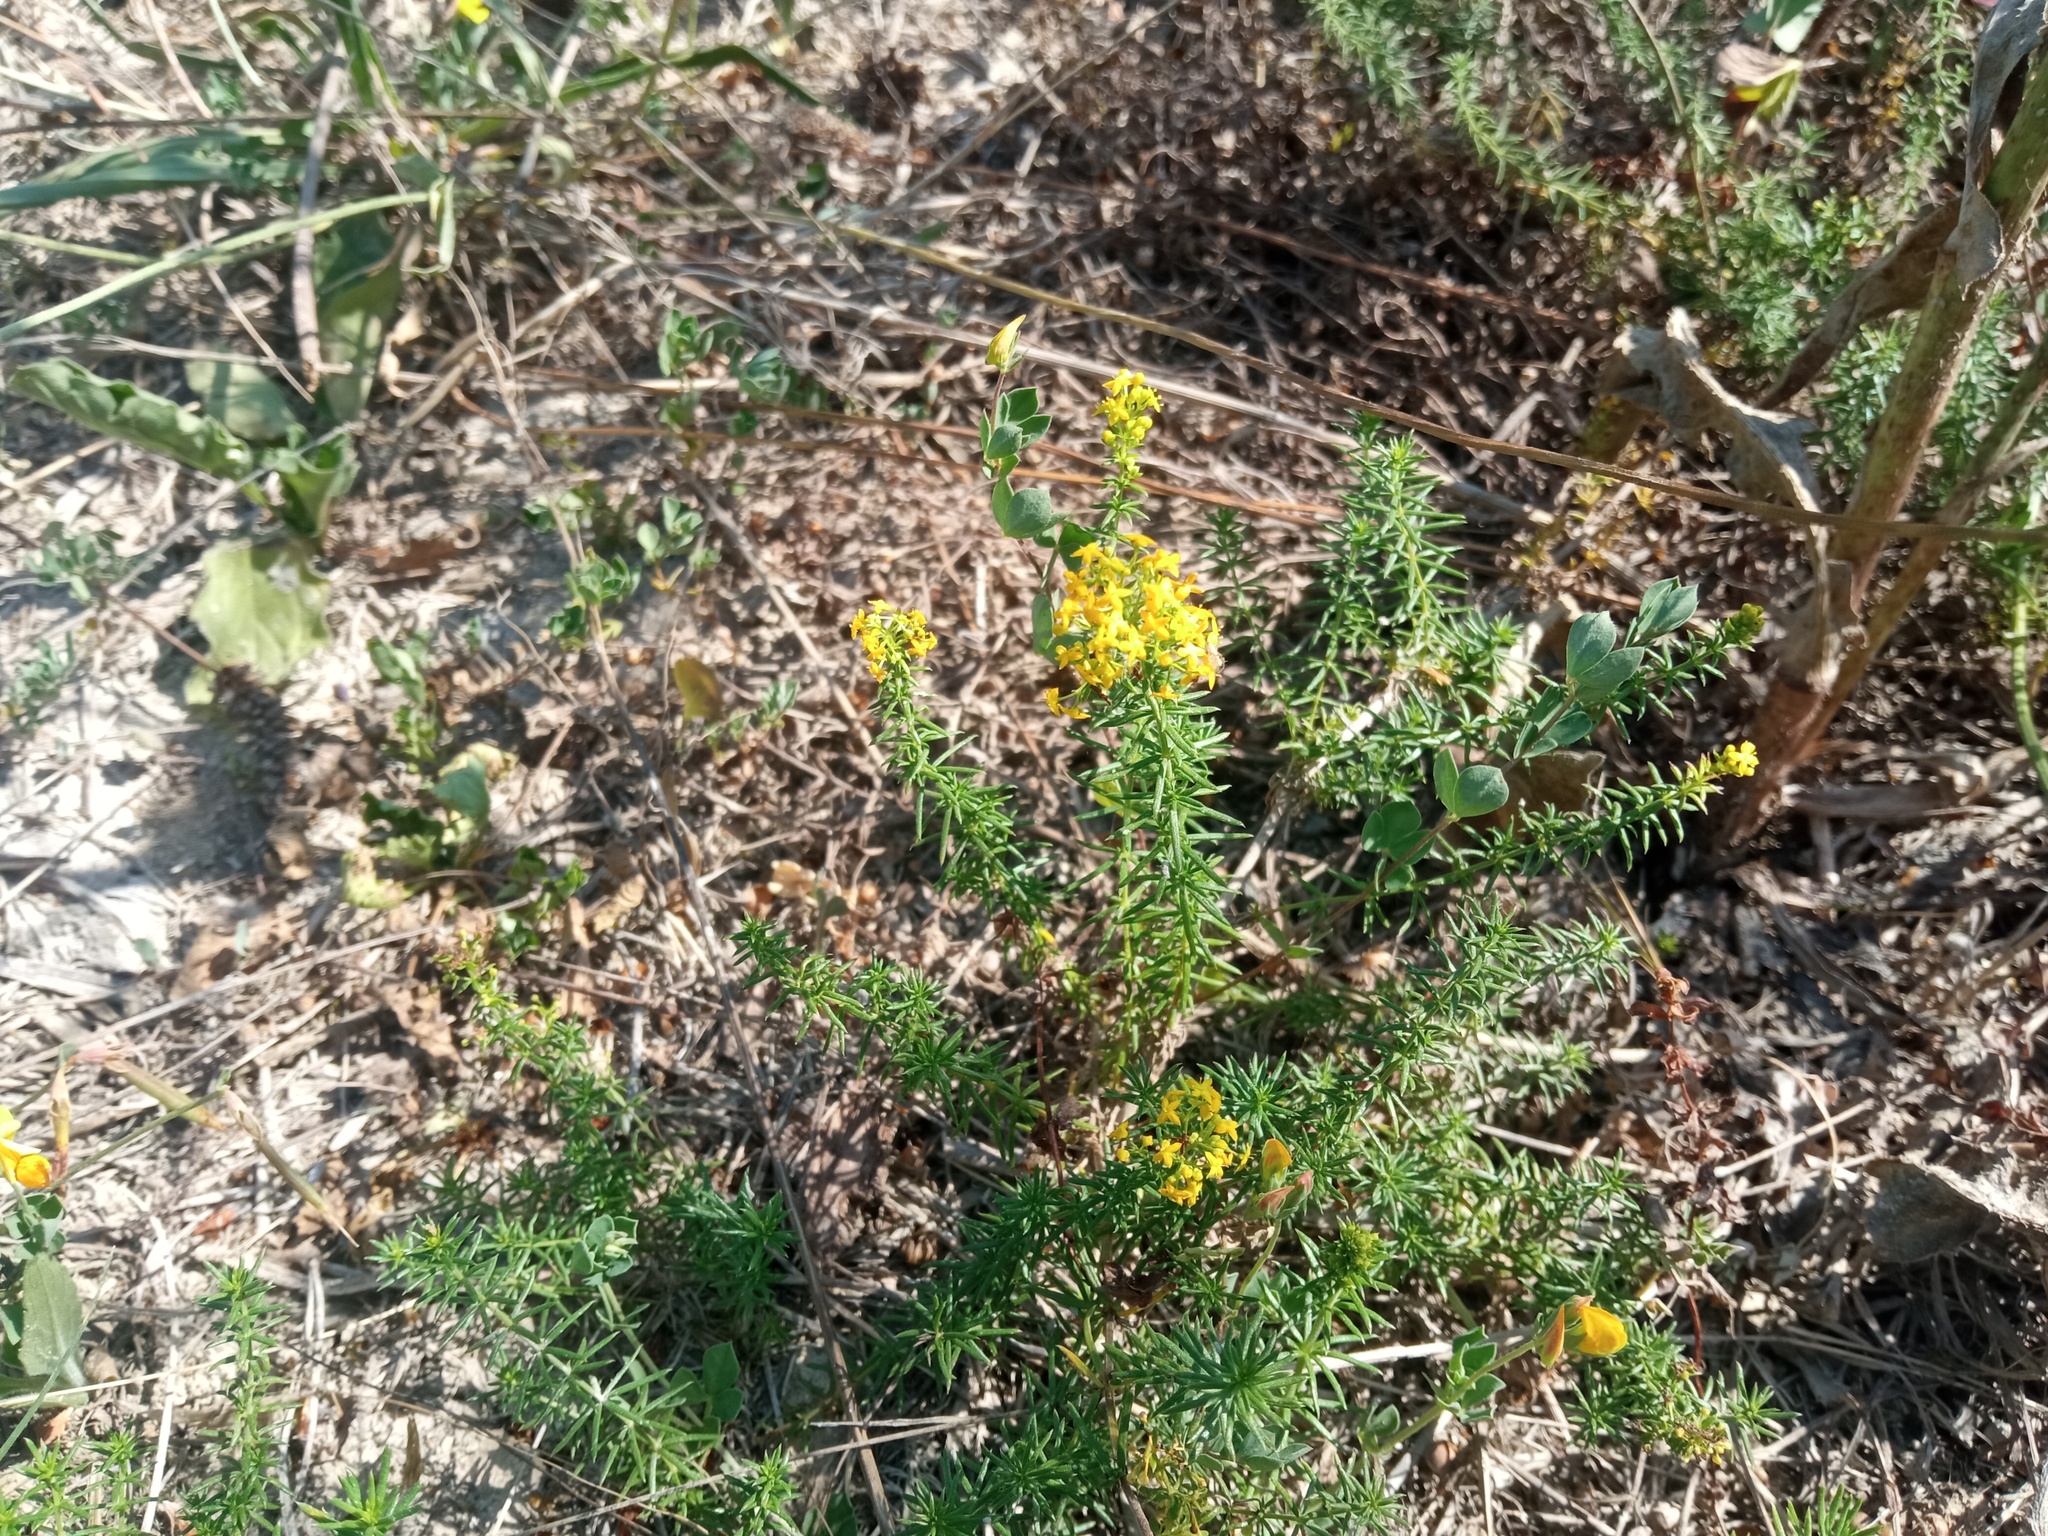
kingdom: Plantae
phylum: Tracheophyta
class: Magnoliopsida
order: Gentianales
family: Rubiaceae
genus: Galium
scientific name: Galium verum
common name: Lady's bedstraw
